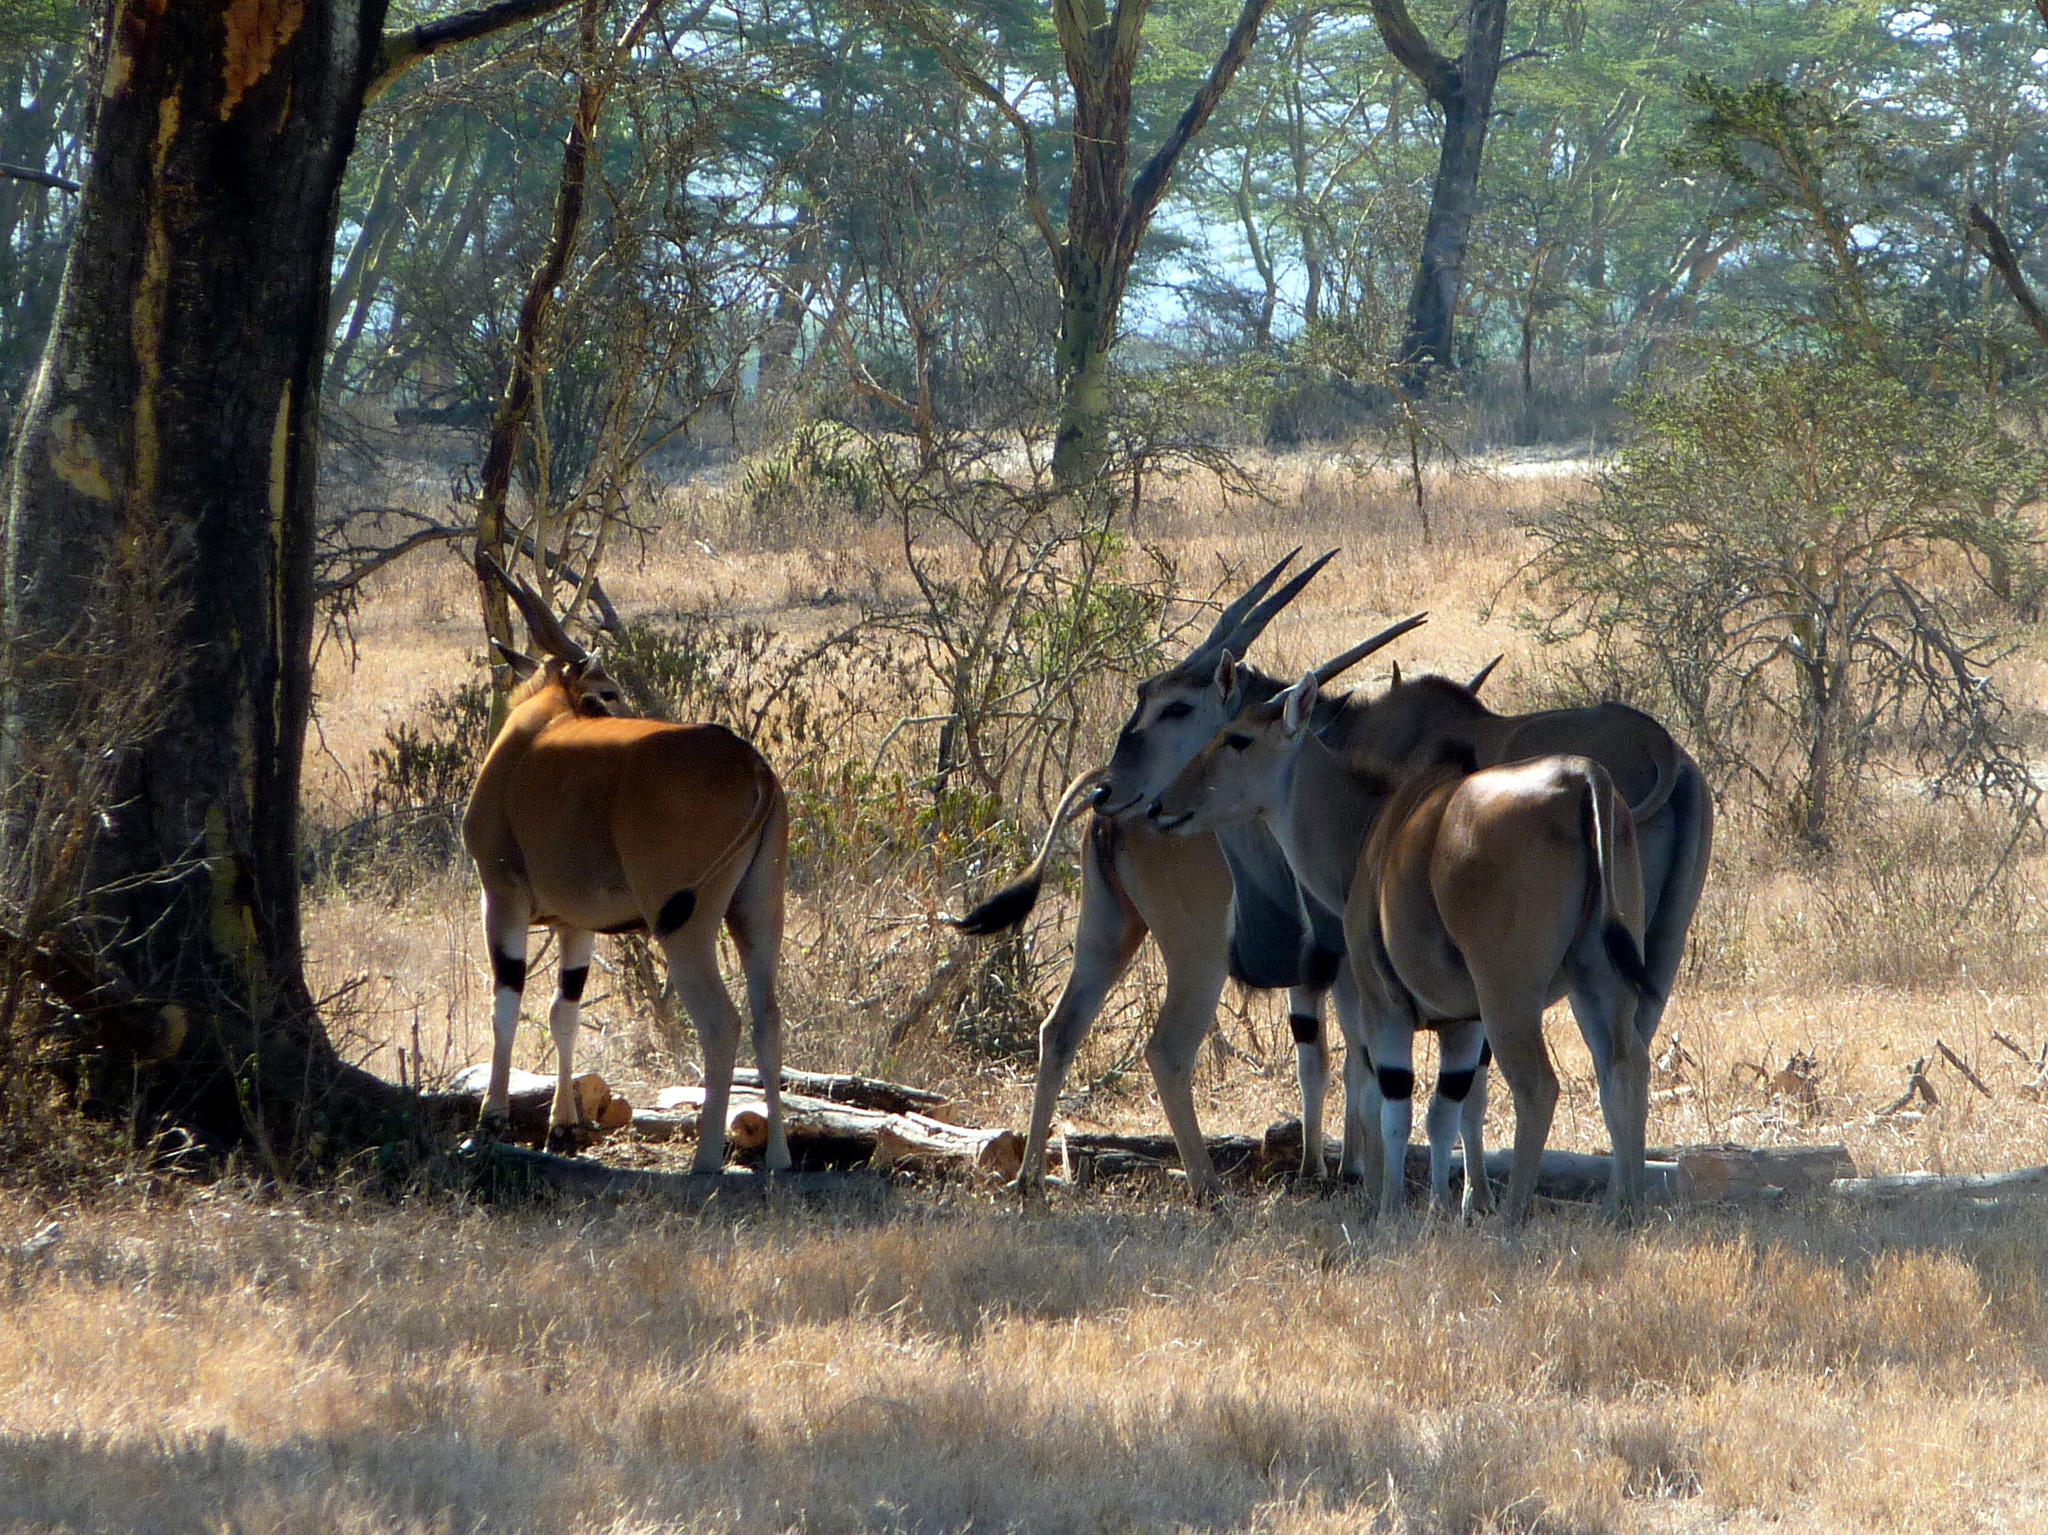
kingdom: Animalia
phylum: Chordata
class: Mammalia
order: Artiodactyla
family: Bovidae
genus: Taurotragus
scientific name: Taurotragus oryx
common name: Common eland
